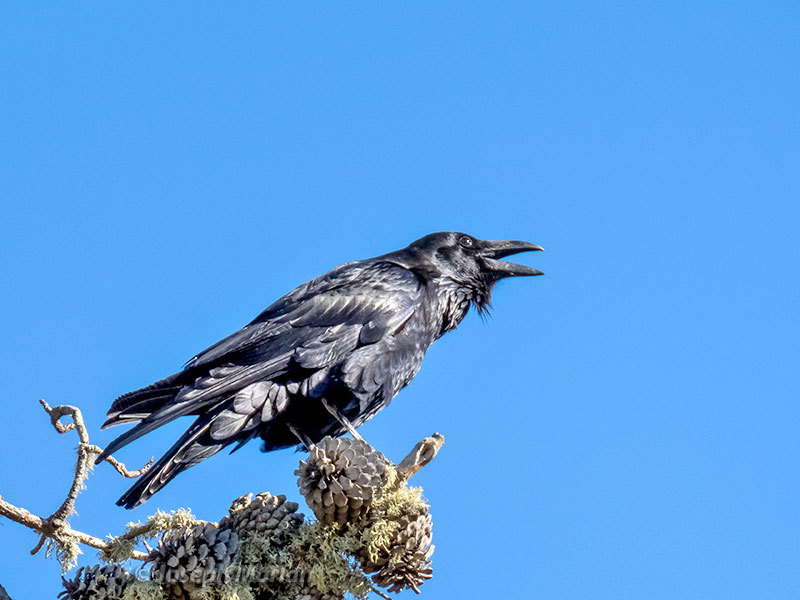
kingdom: Animalia
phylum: Chordata
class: Aves
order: Passeriformes
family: Corvidae
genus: Corvus
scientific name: Corvus corax
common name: Common raven
